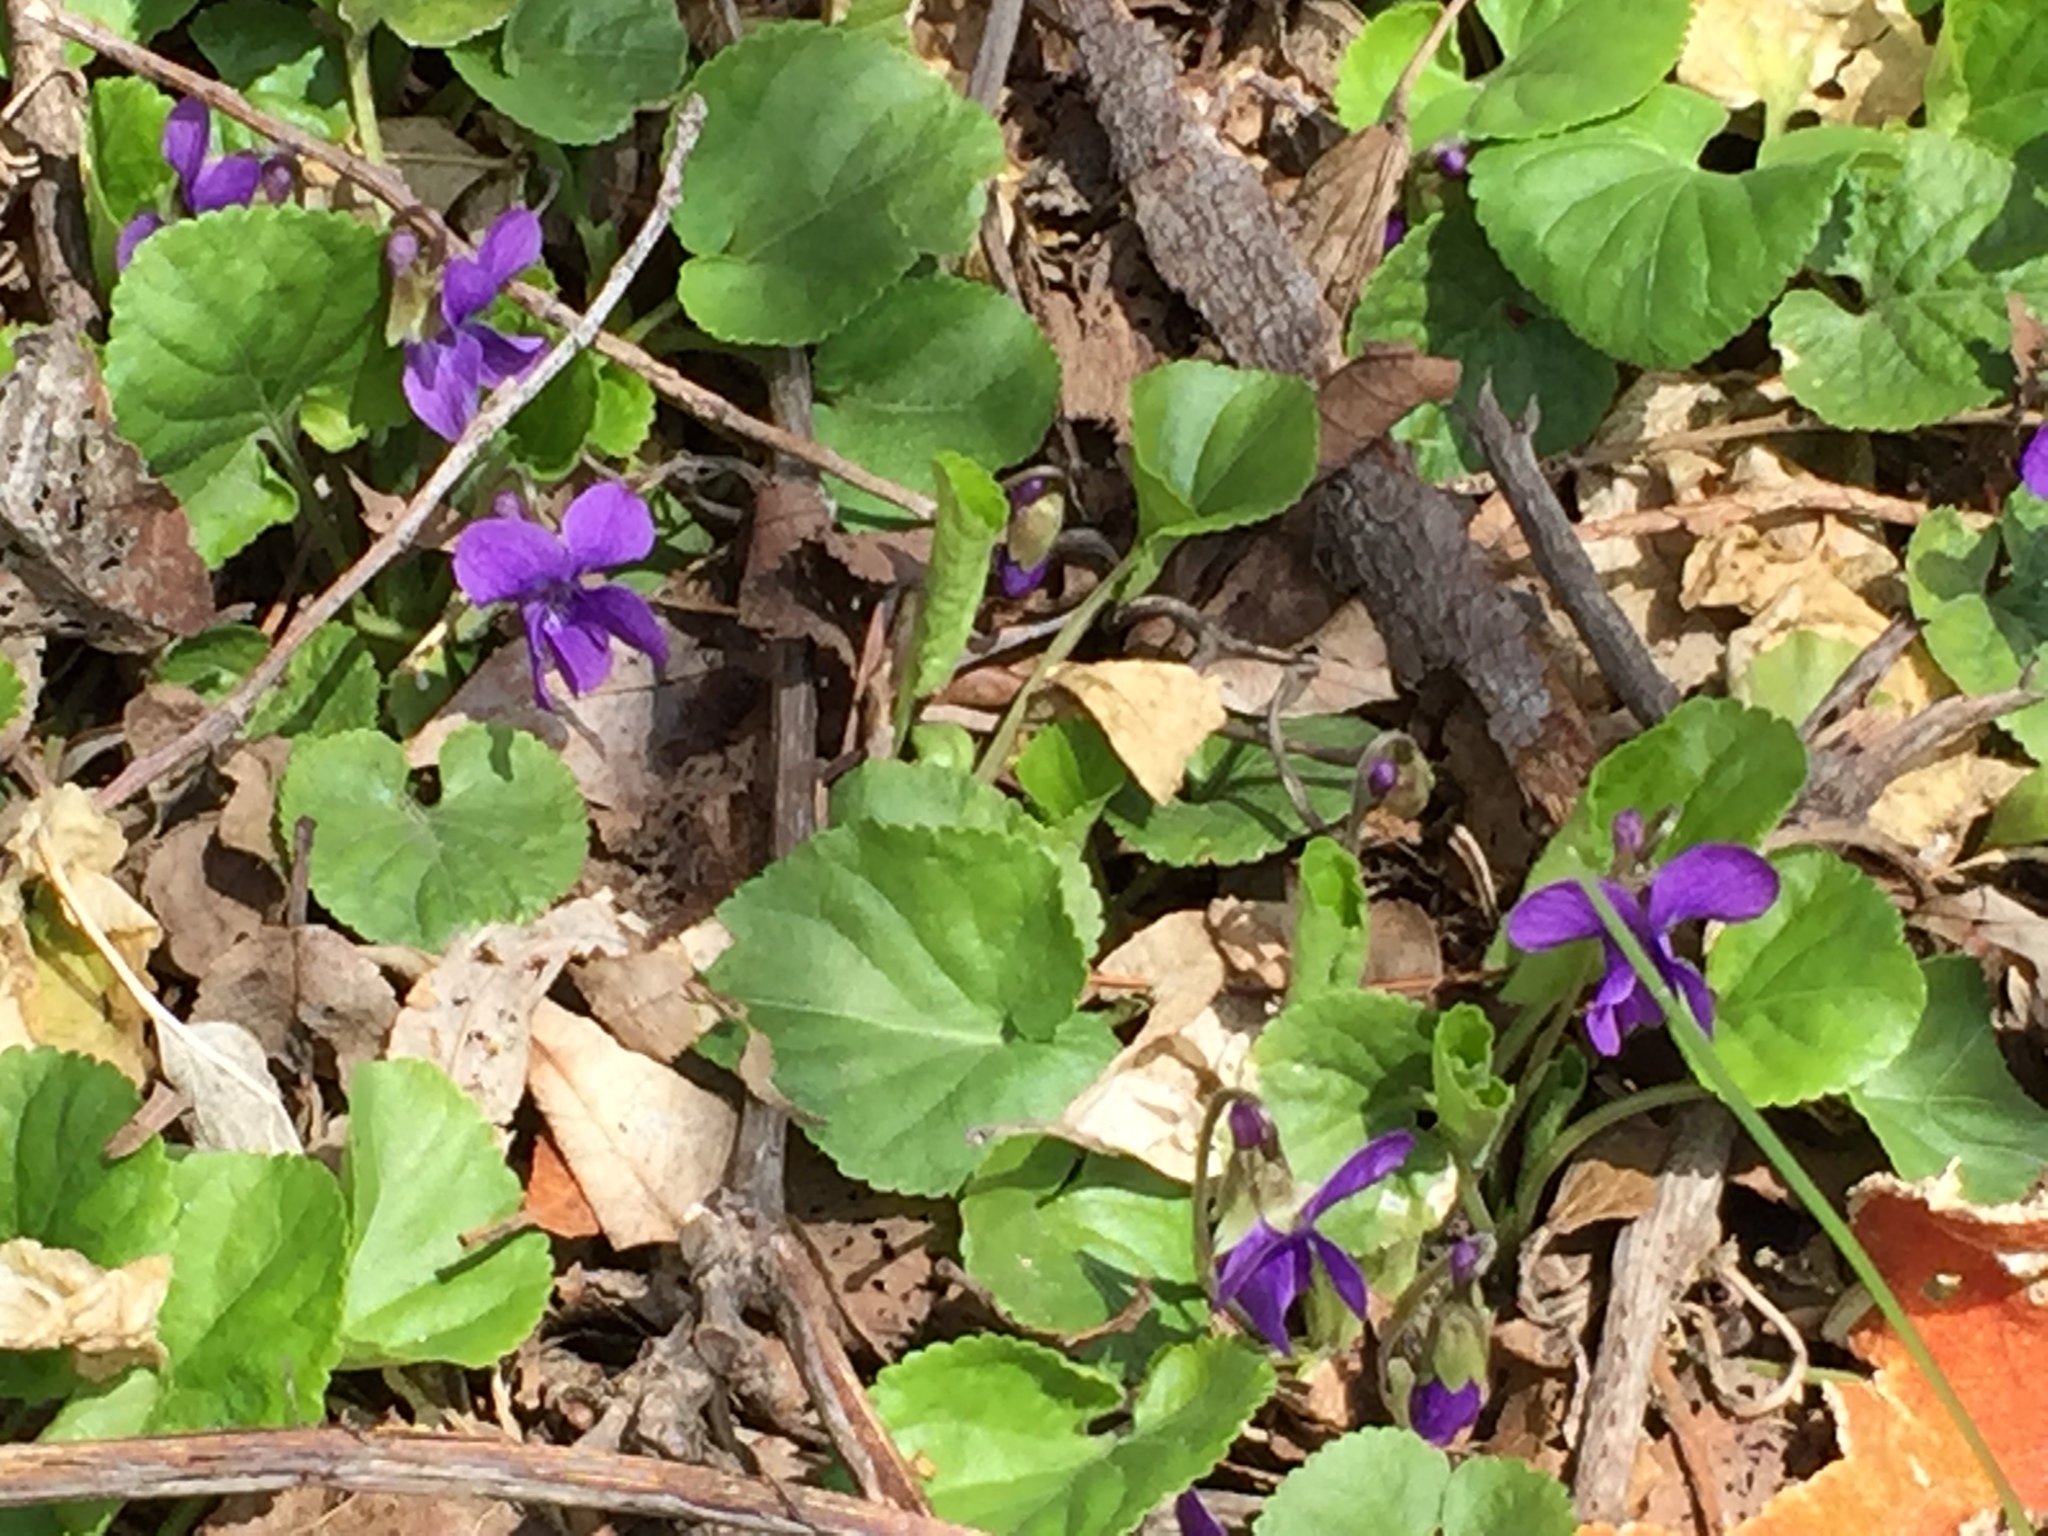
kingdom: Plantae
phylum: Tracheophyta
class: Magnoliopsida
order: Malpighiales
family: Violaceae
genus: Viola
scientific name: Viola odorata
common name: Sweet violet
